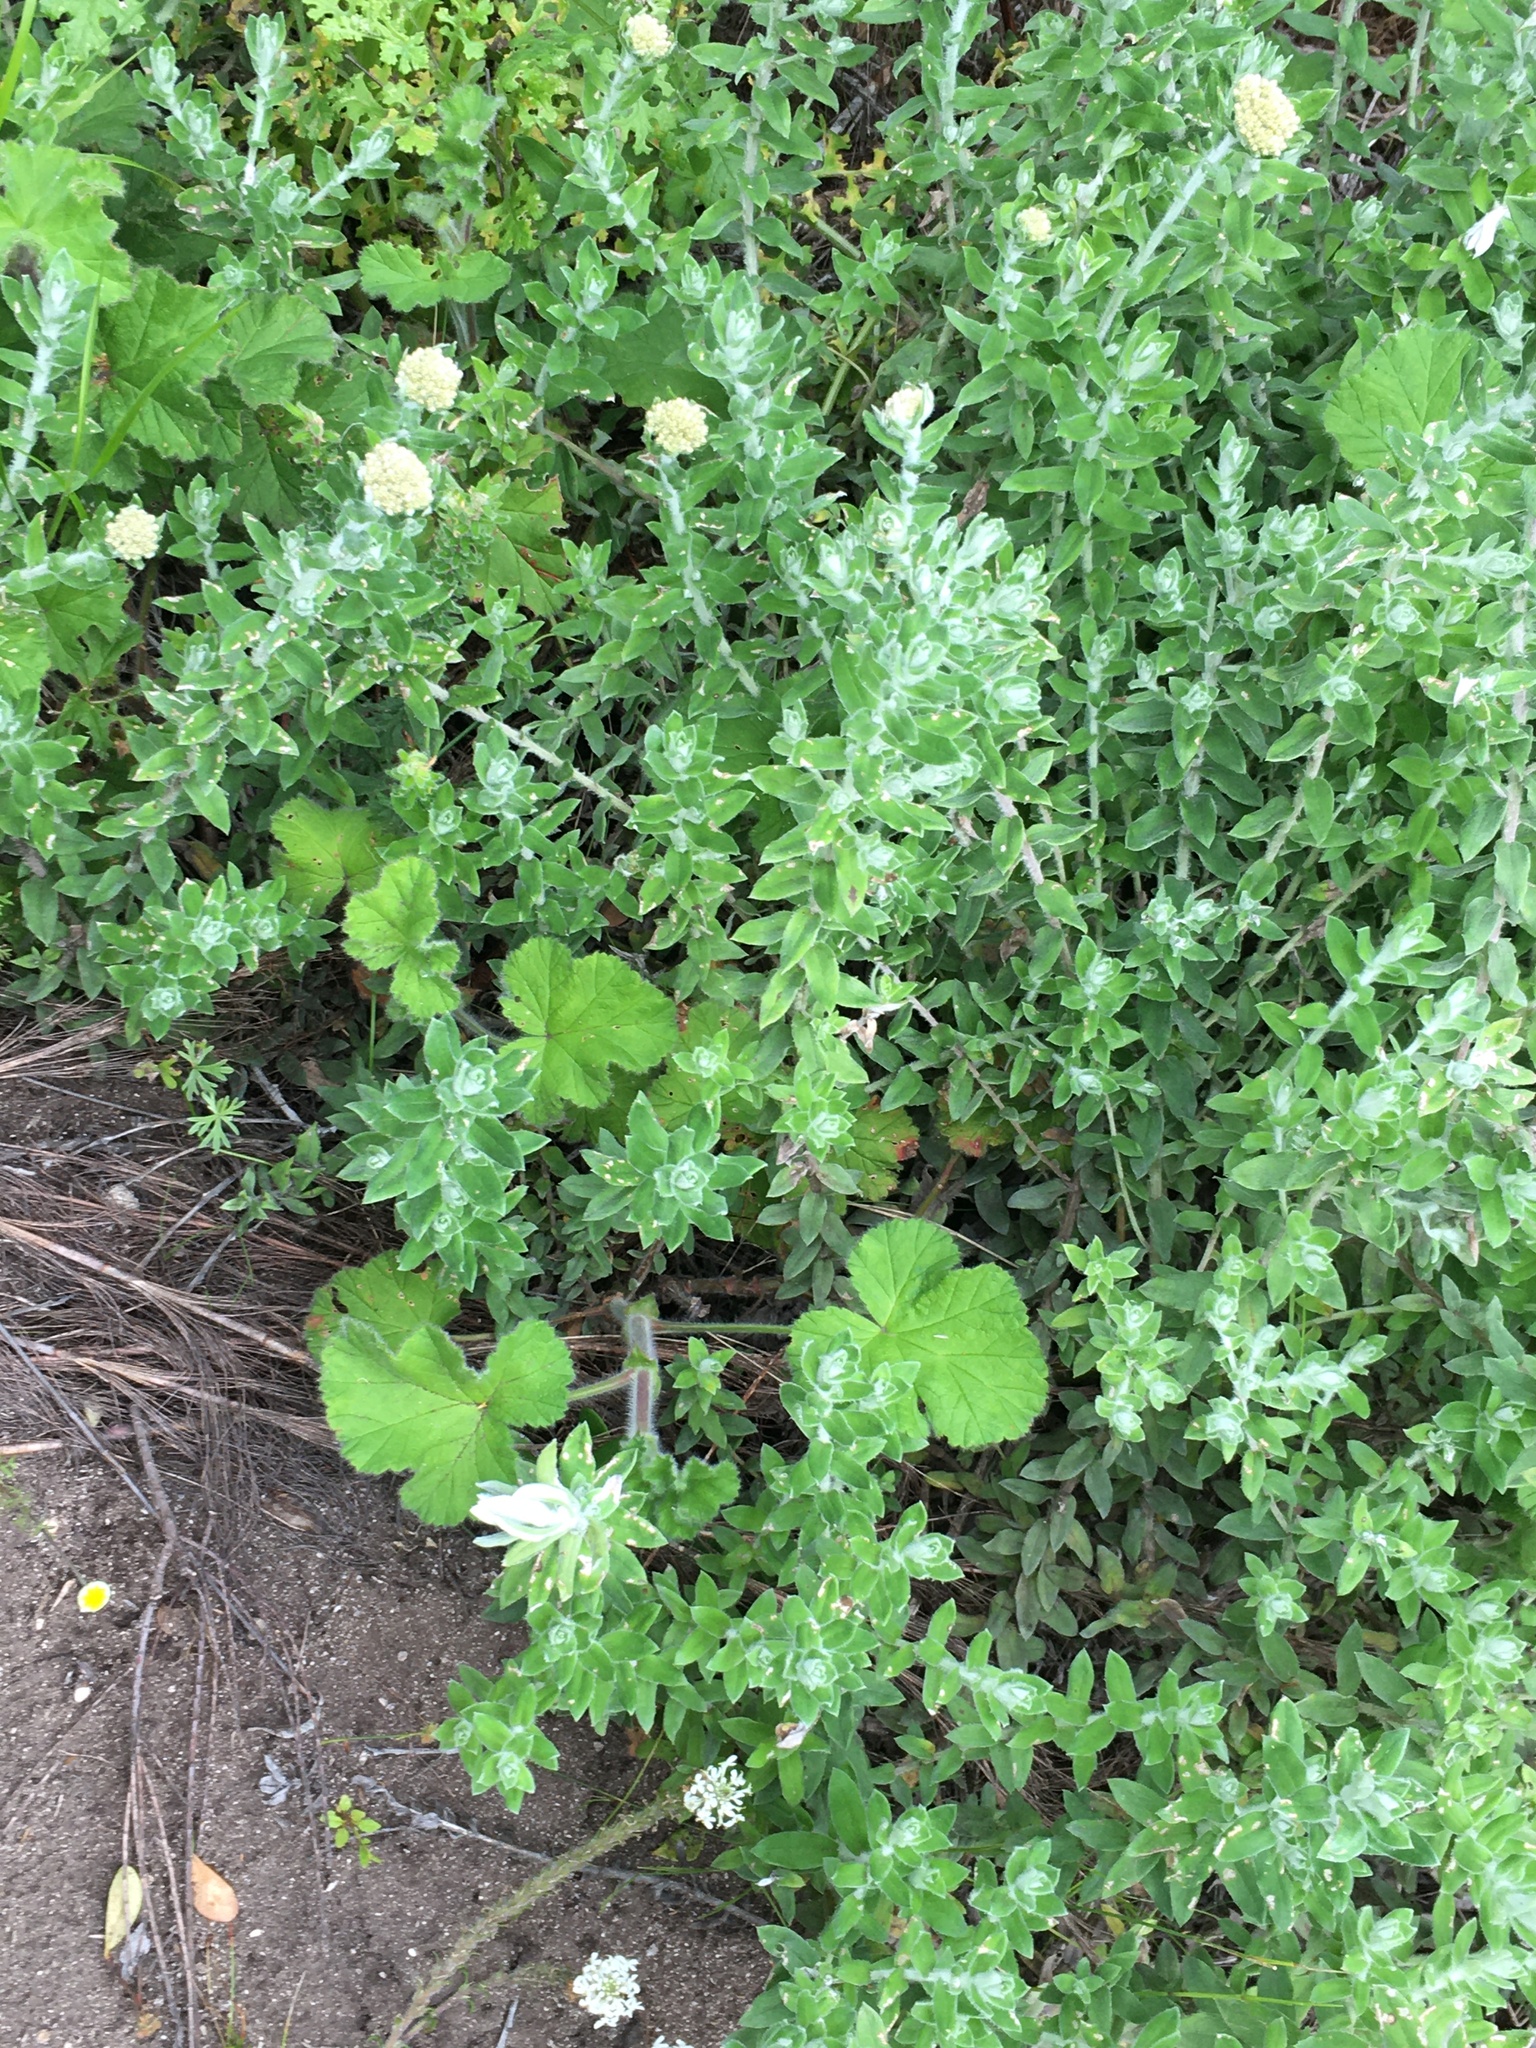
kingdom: Plantae
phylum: Tracheophyta
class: Magnoliopsida
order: Geraniales
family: Geraniaceae
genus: Pelargonium
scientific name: Pelargonium capitatum
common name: Rose scented geranium
